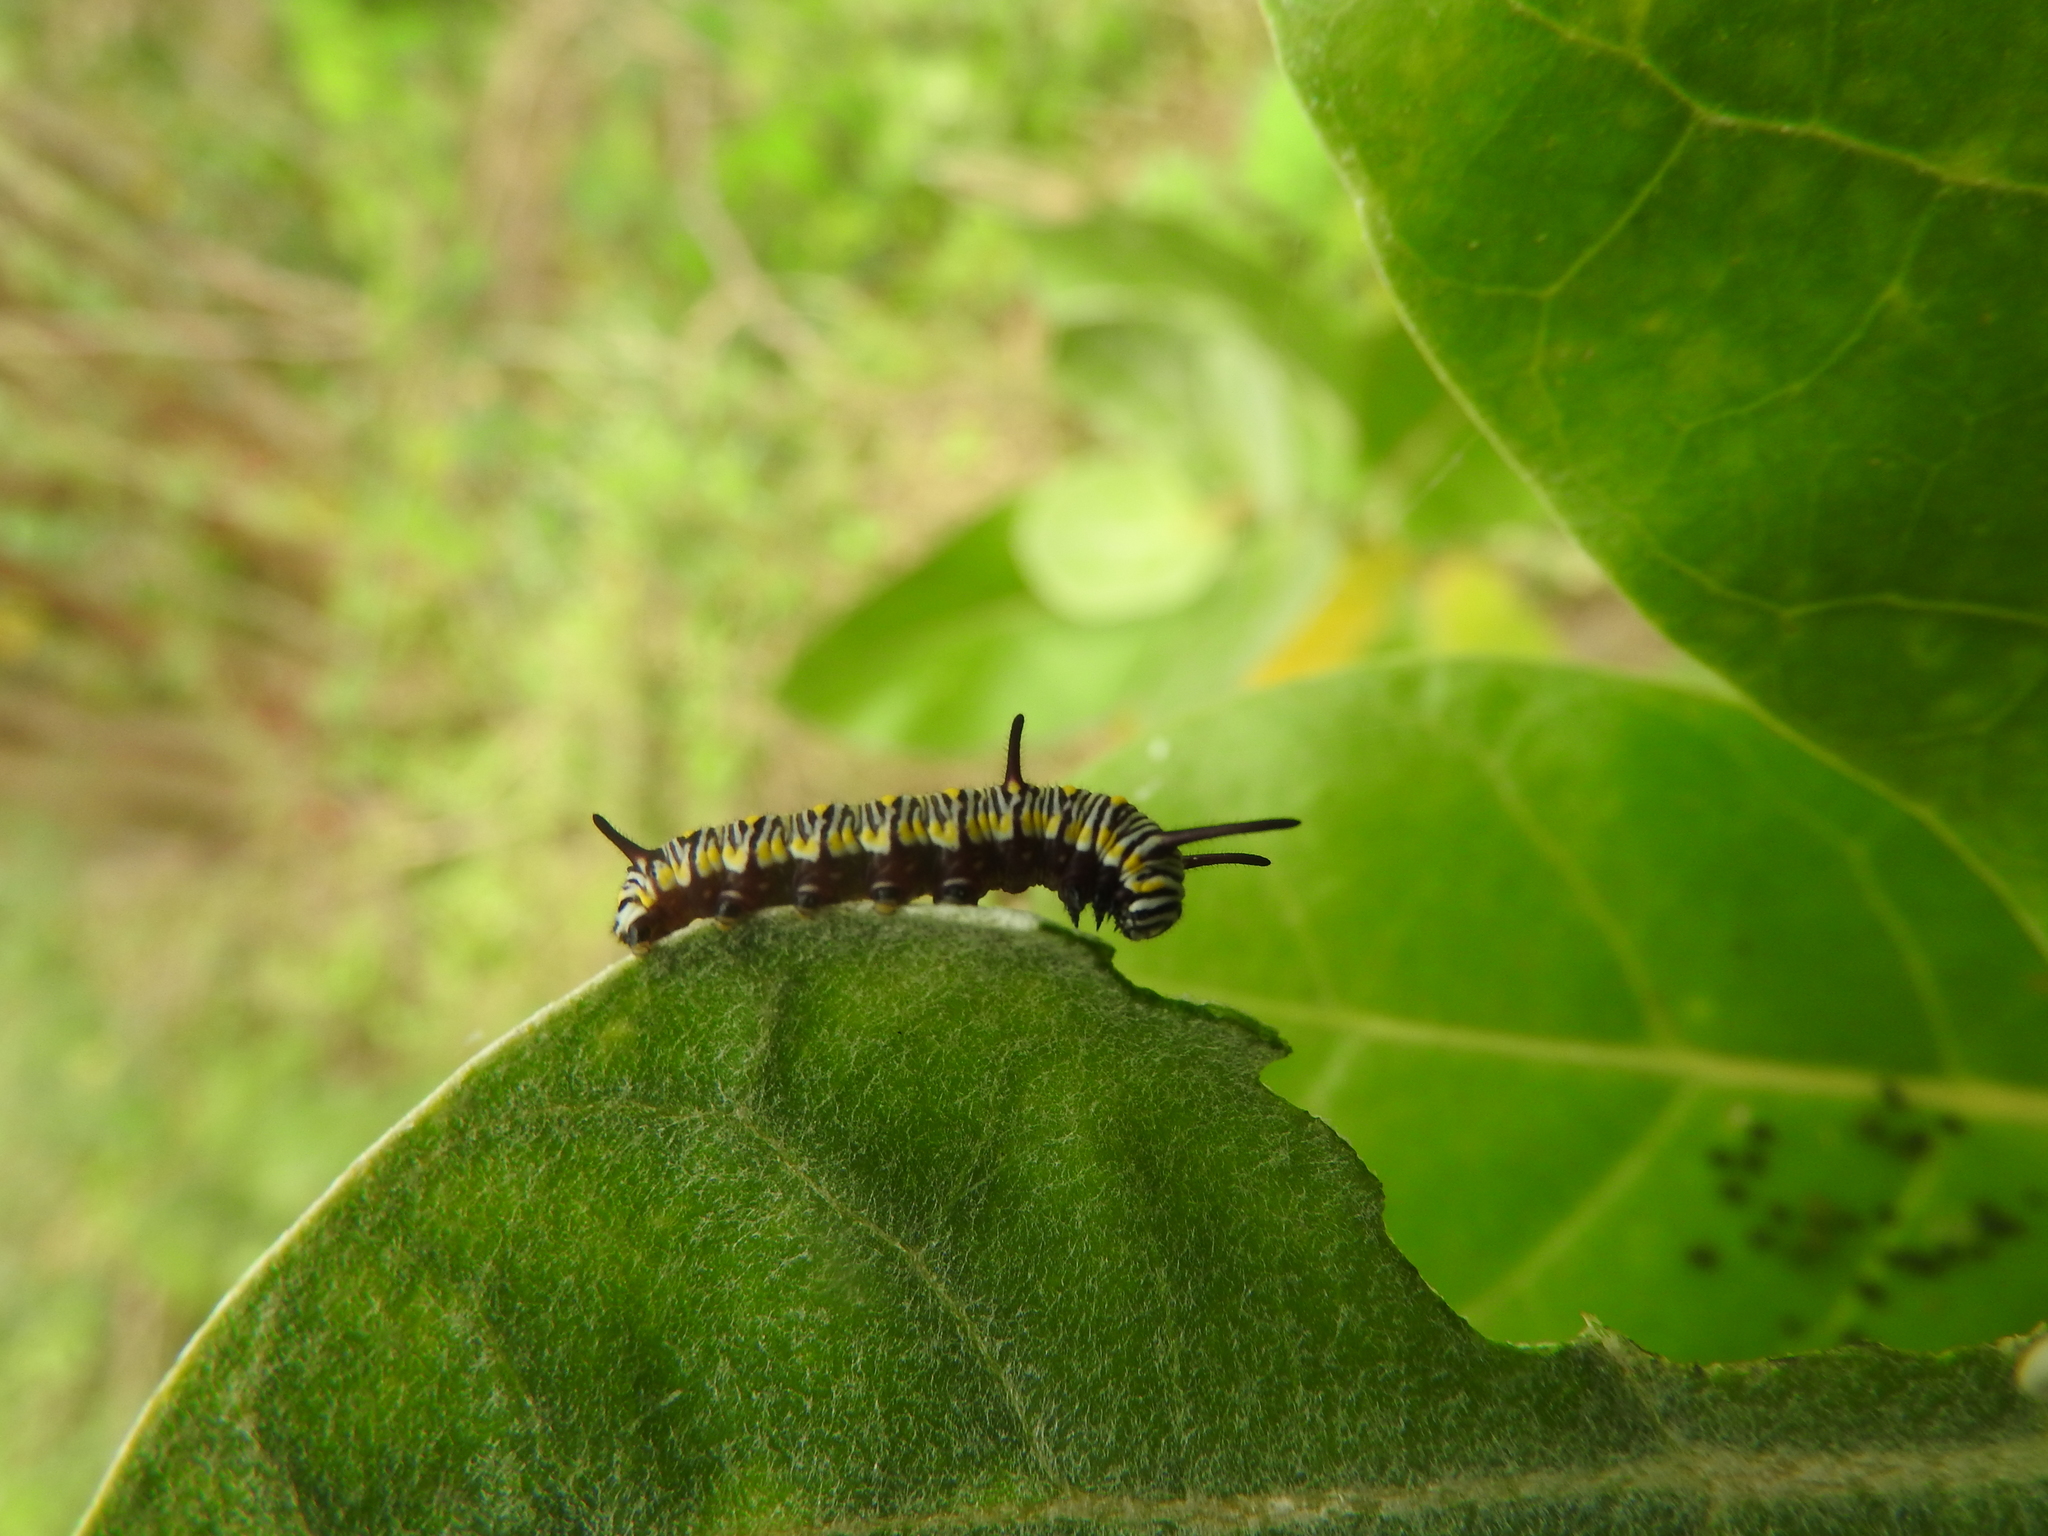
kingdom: Animalia
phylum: Arthropoda
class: Insecta
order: Lepidoptera
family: Nymphalidae
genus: Danaus
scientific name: Danaus chrysippus
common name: Plain tiger
